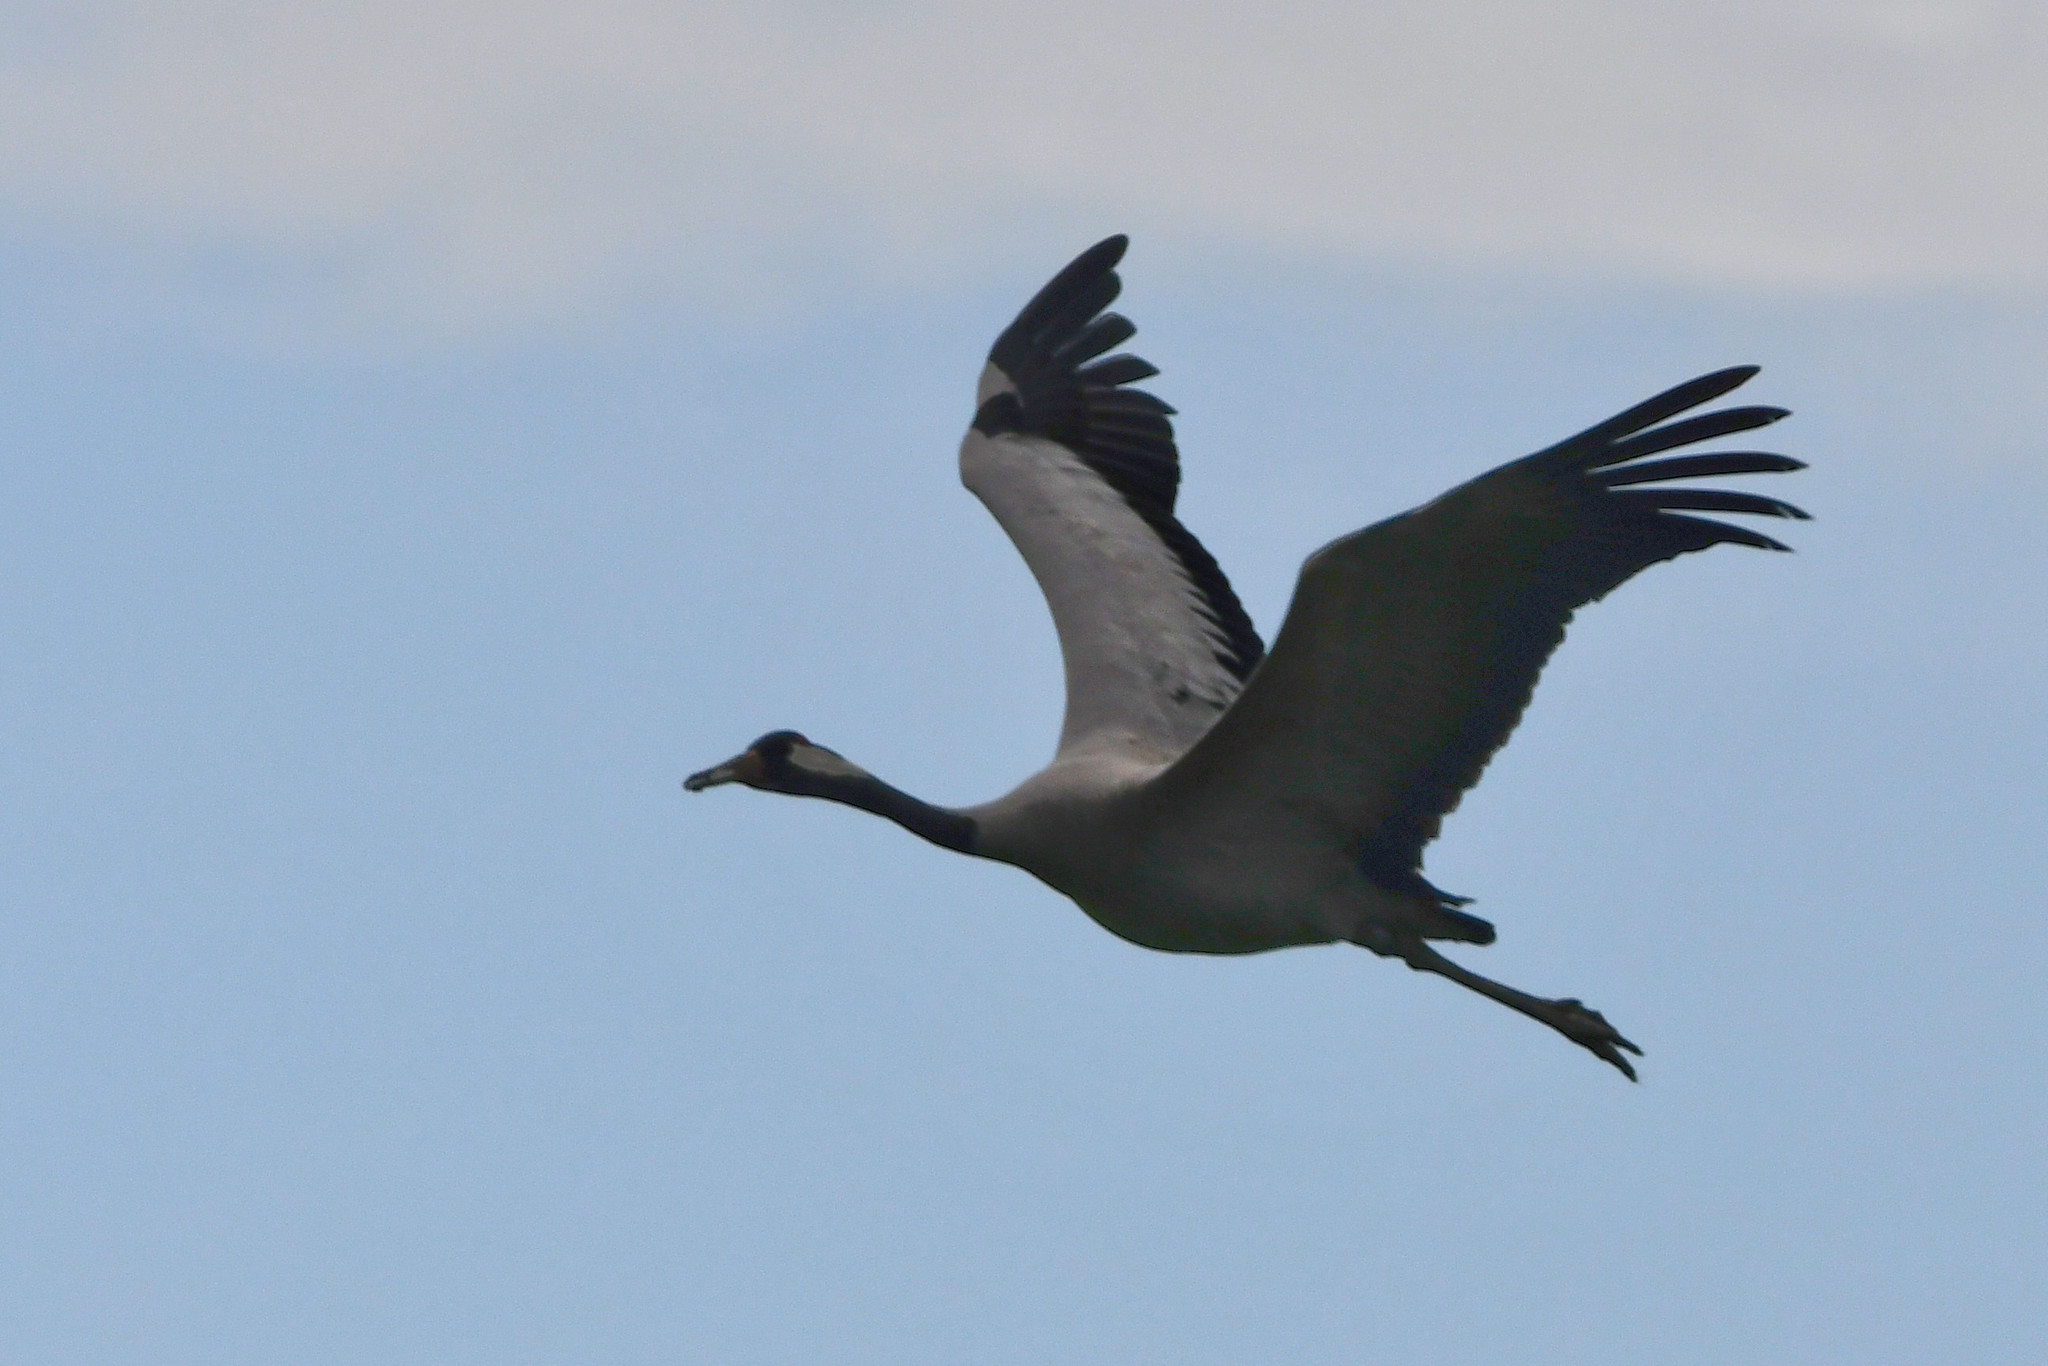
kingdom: Animalia
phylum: Chordata
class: Aves
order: Gruiformes
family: Gruidae
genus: Grus
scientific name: Grus grus
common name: Common crane
